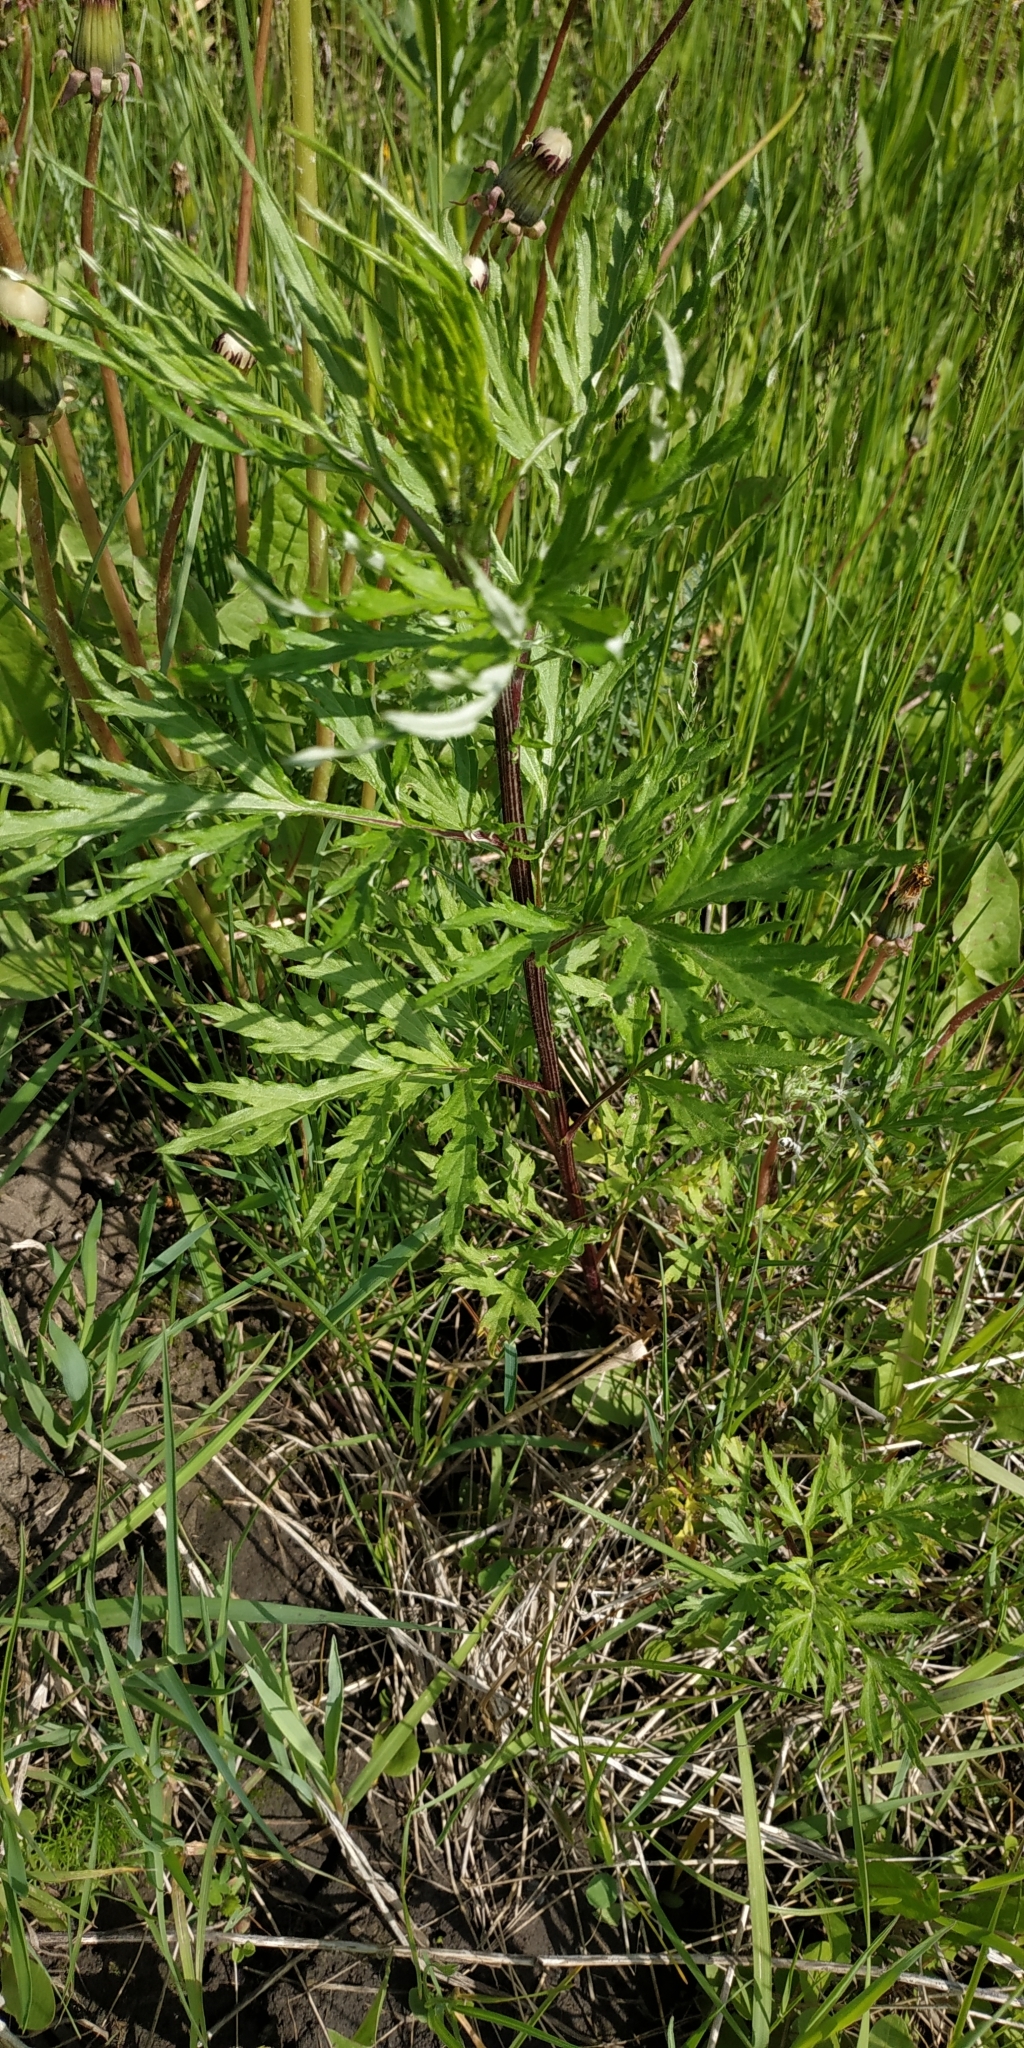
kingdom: Plantae
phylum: Tracheophyta
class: Magnoliopsida
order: Asterales
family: Asteraceae
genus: Artemisia
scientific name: Artemisia vulgaris
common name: Mugwort
